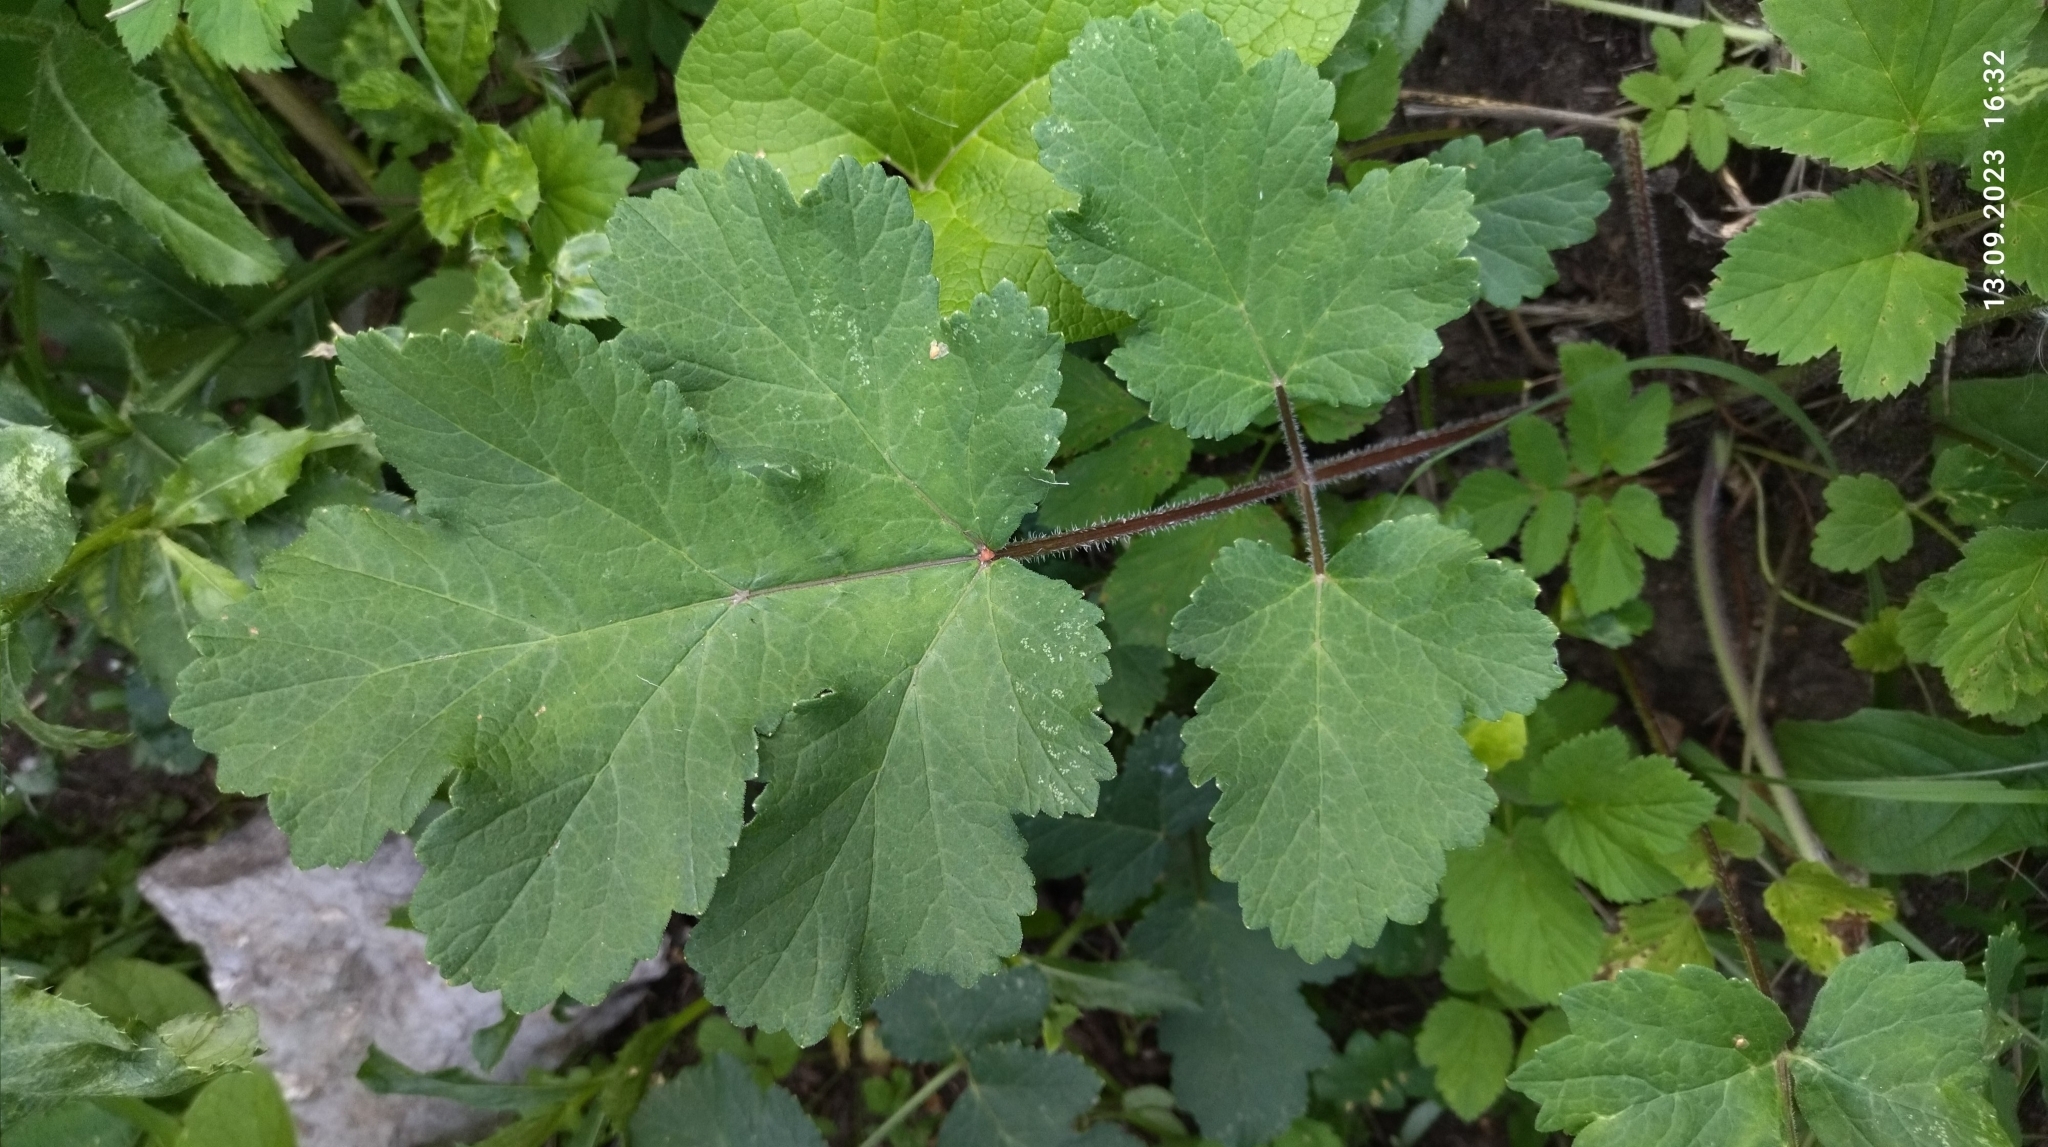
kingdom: Plantae
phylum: Tracheophyta
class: Magnoliopsida
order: Apiales
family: Apiaceae
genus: Heracleum
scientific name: Heracleum sphondylium
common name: Hogweed
